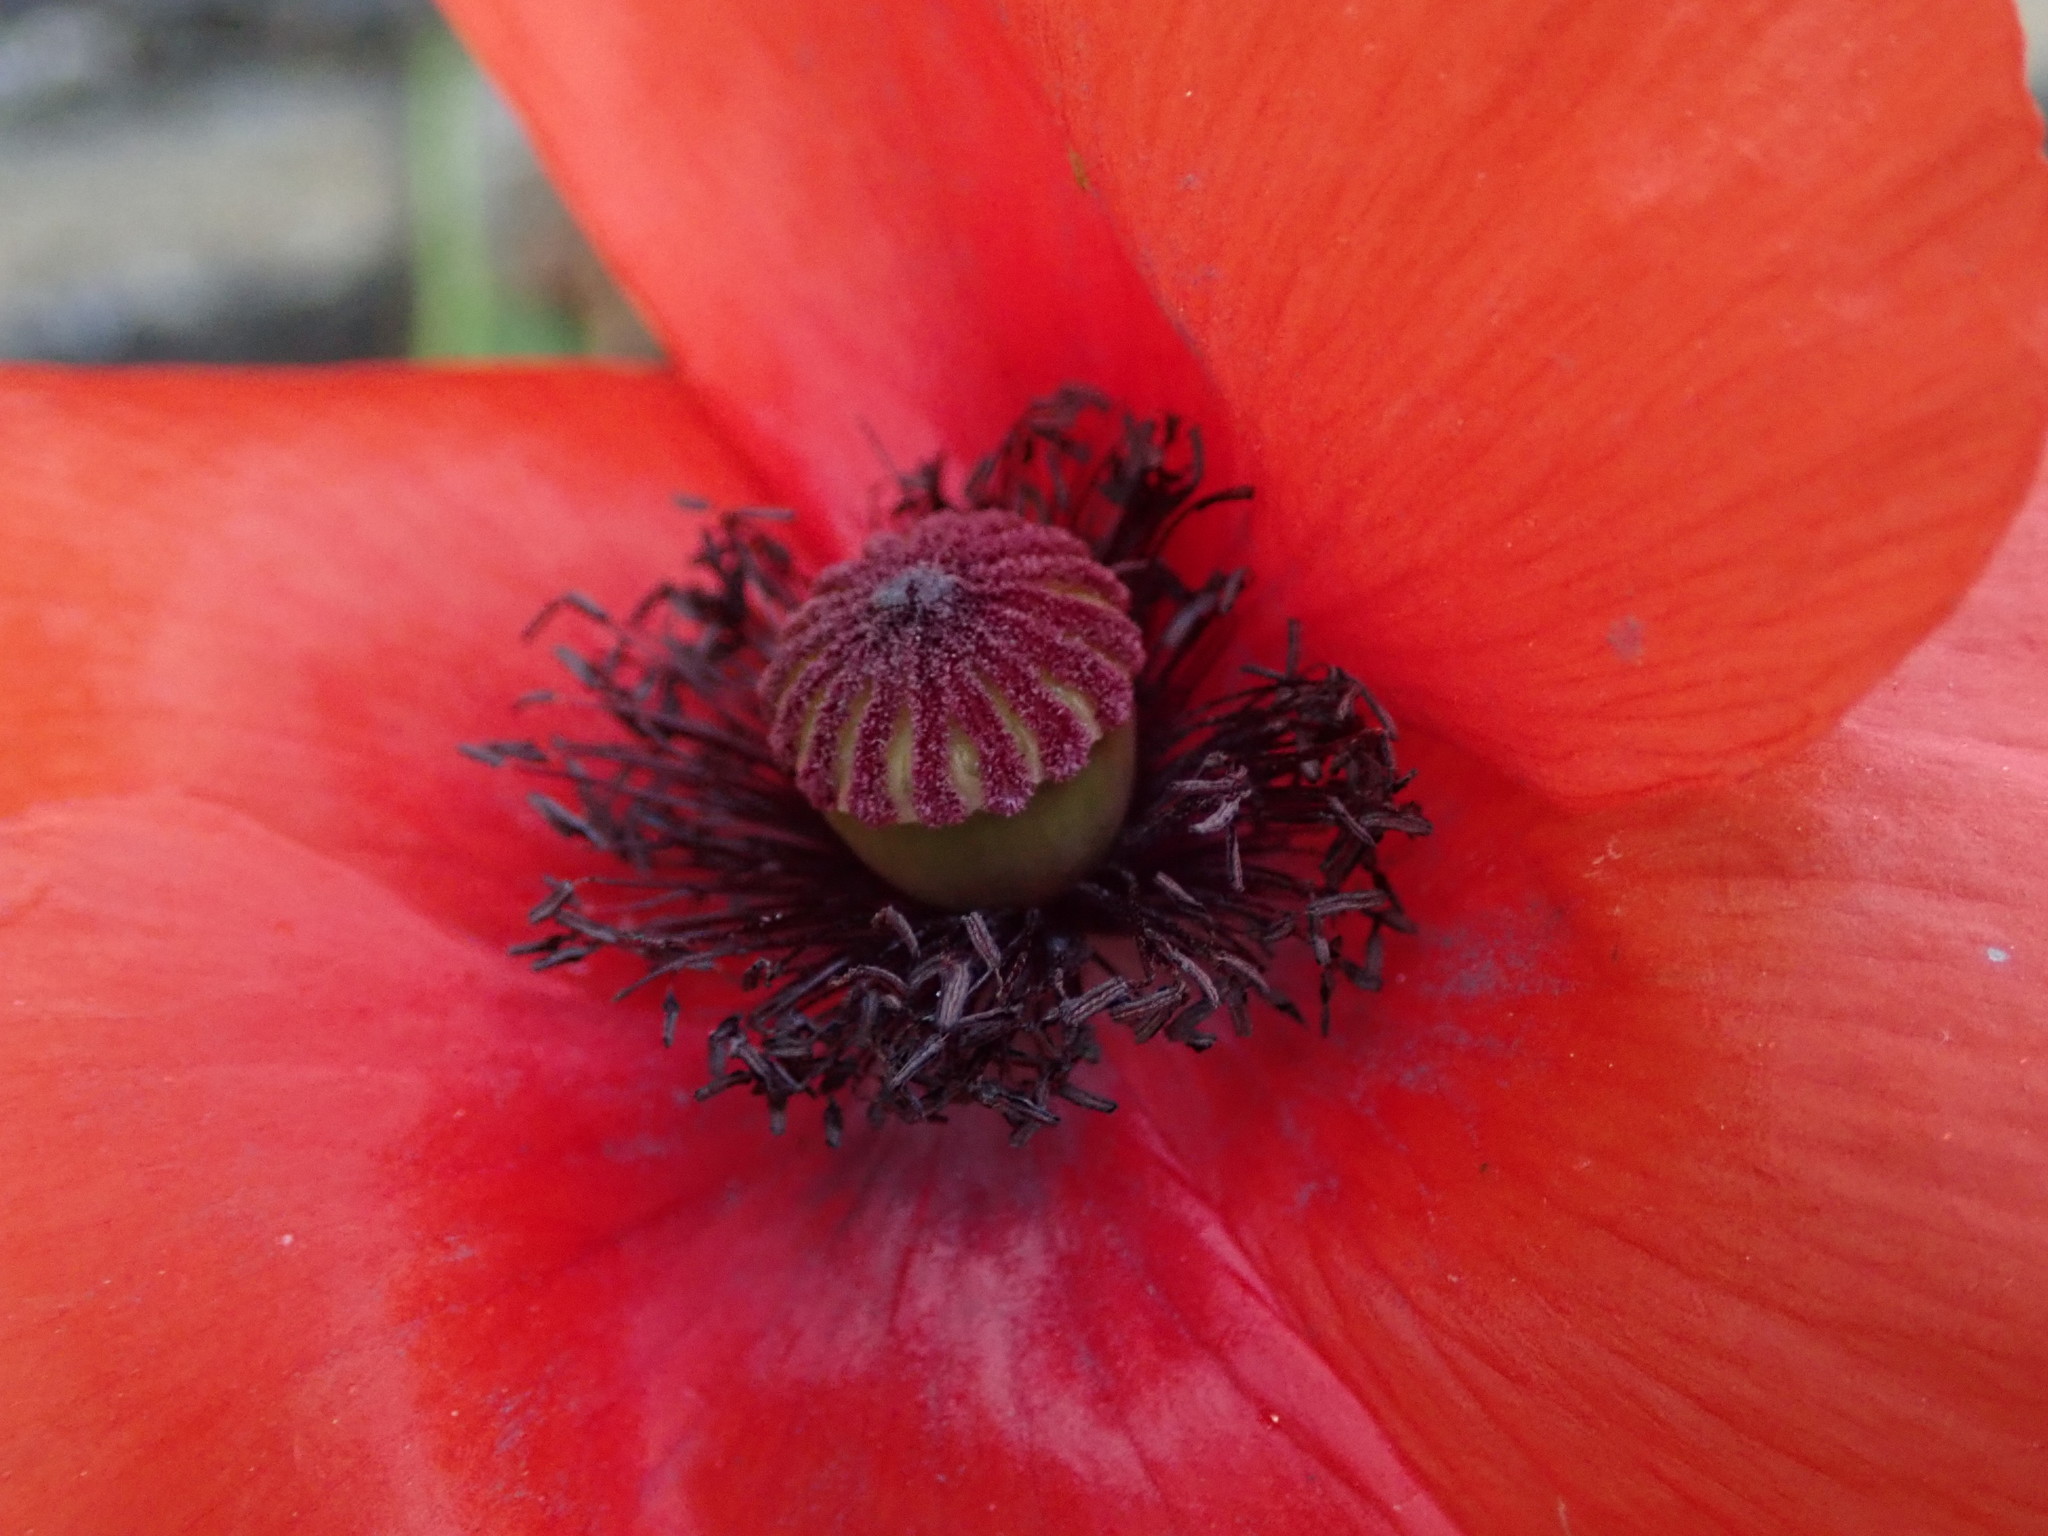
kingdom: Plantae
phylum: Tracheophyta
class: Magnoliopsida
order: Ranunculales
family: Papaveraceae
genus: Papaver
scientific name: Papaver rhoeas
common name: Corn poppy
